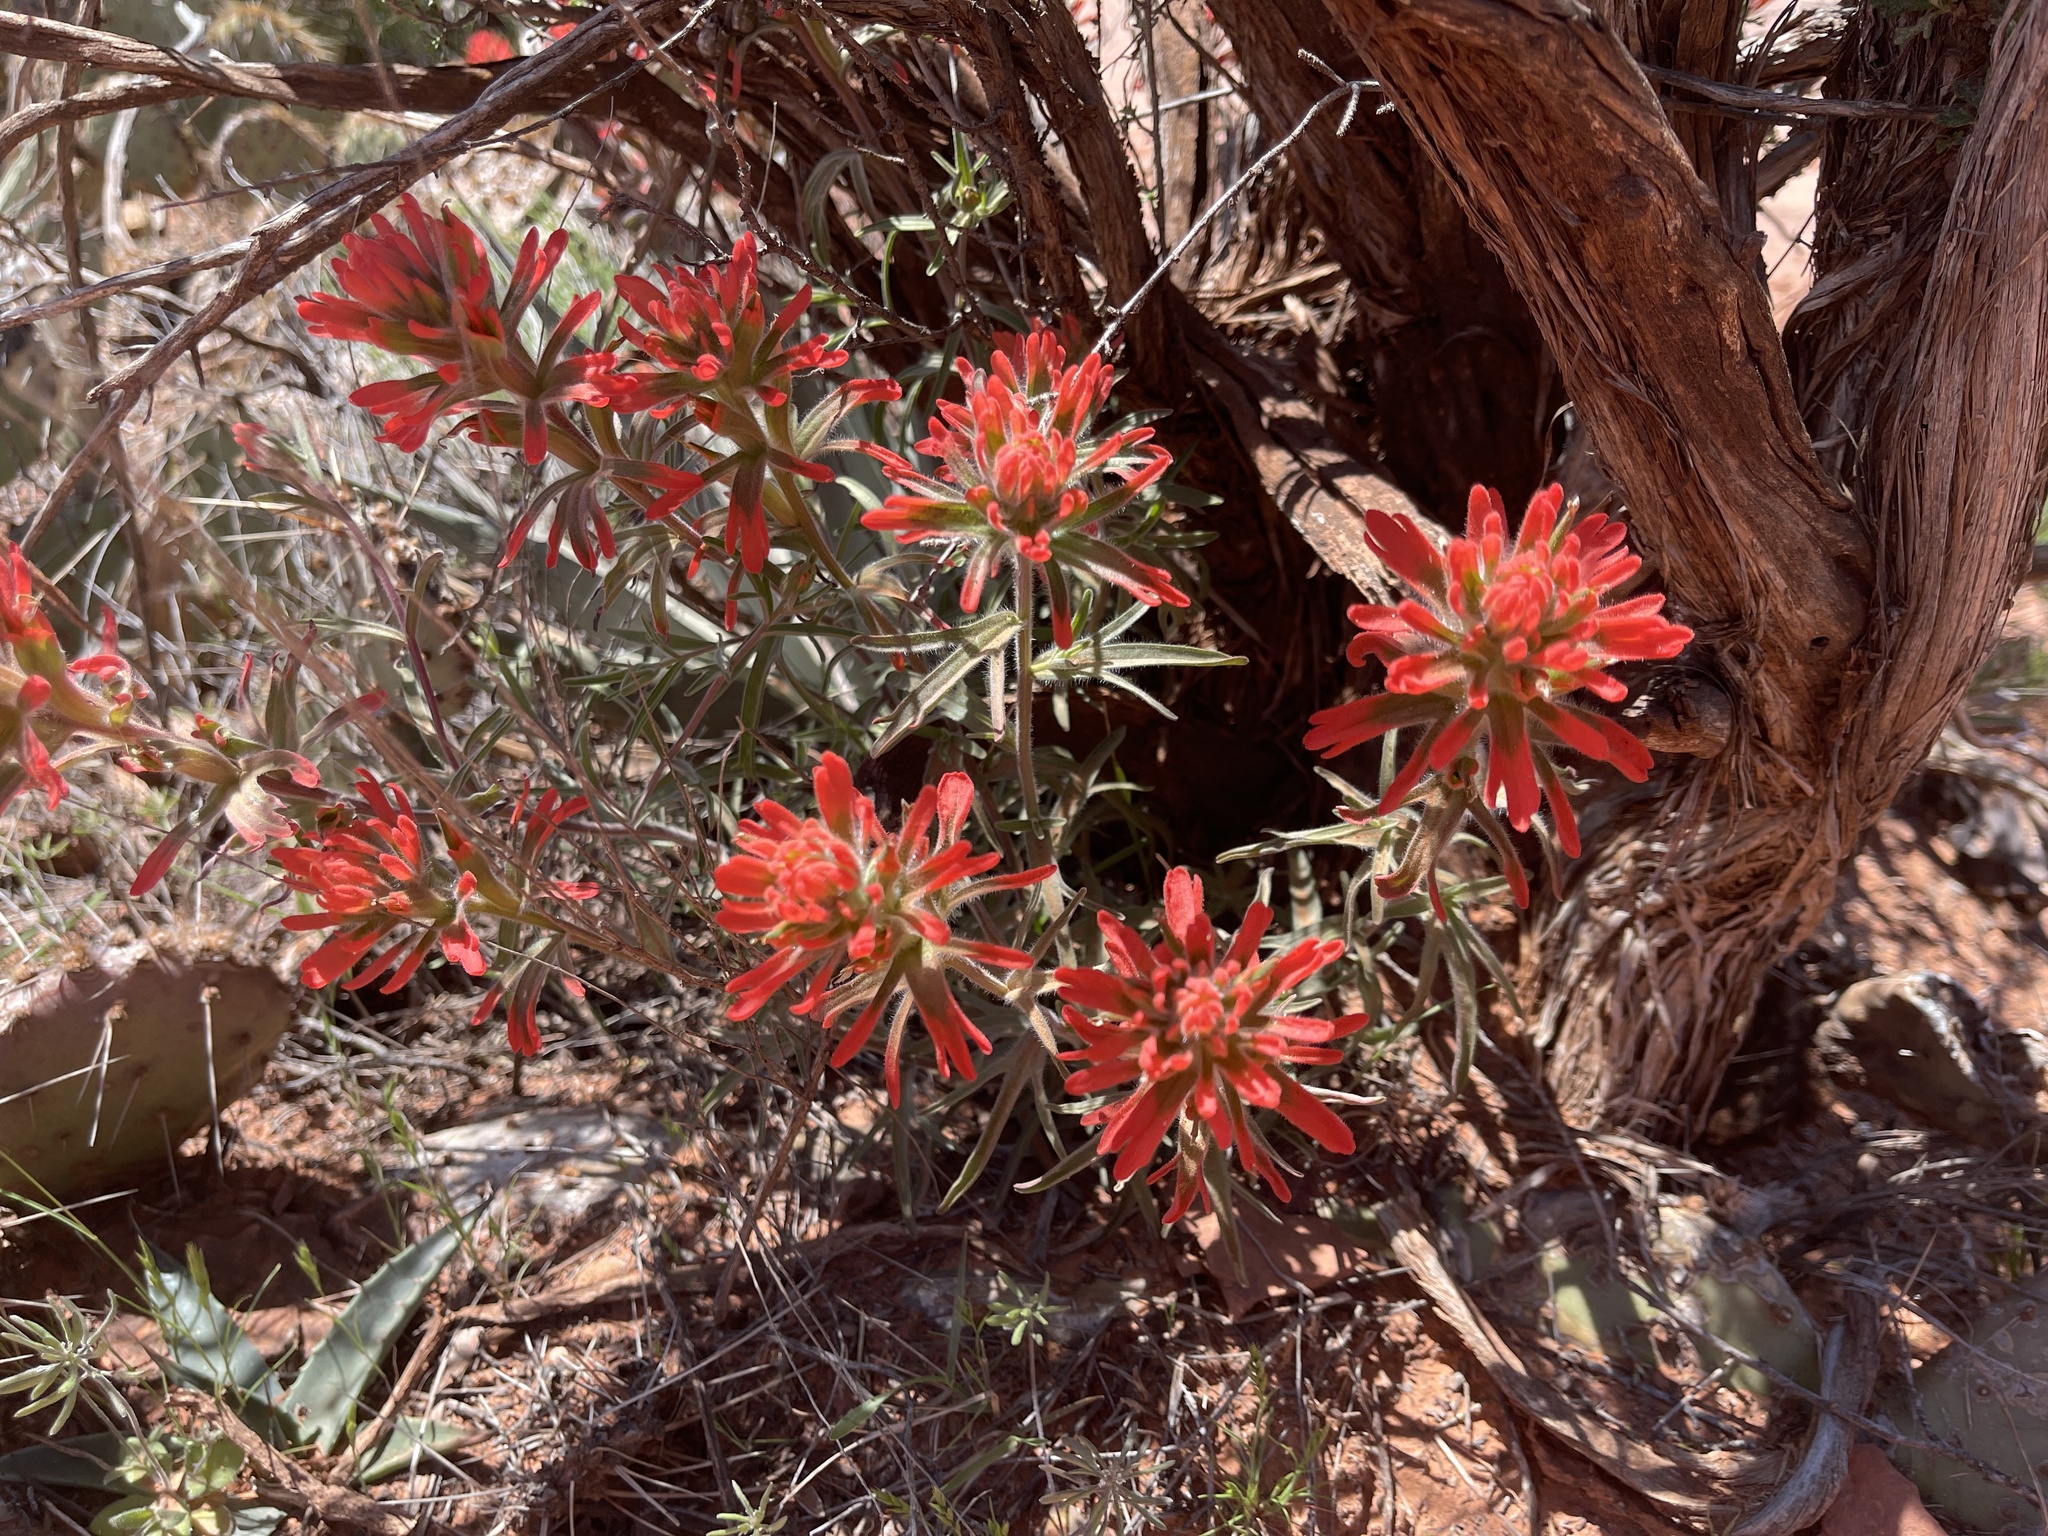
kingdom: Plantae
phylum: Tracheophyta
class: Magnoliopsida
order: Lamiales
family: Orobanchaceae
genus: Castilleja
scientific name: Castilleja chromosa
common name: Desert paintbrush
